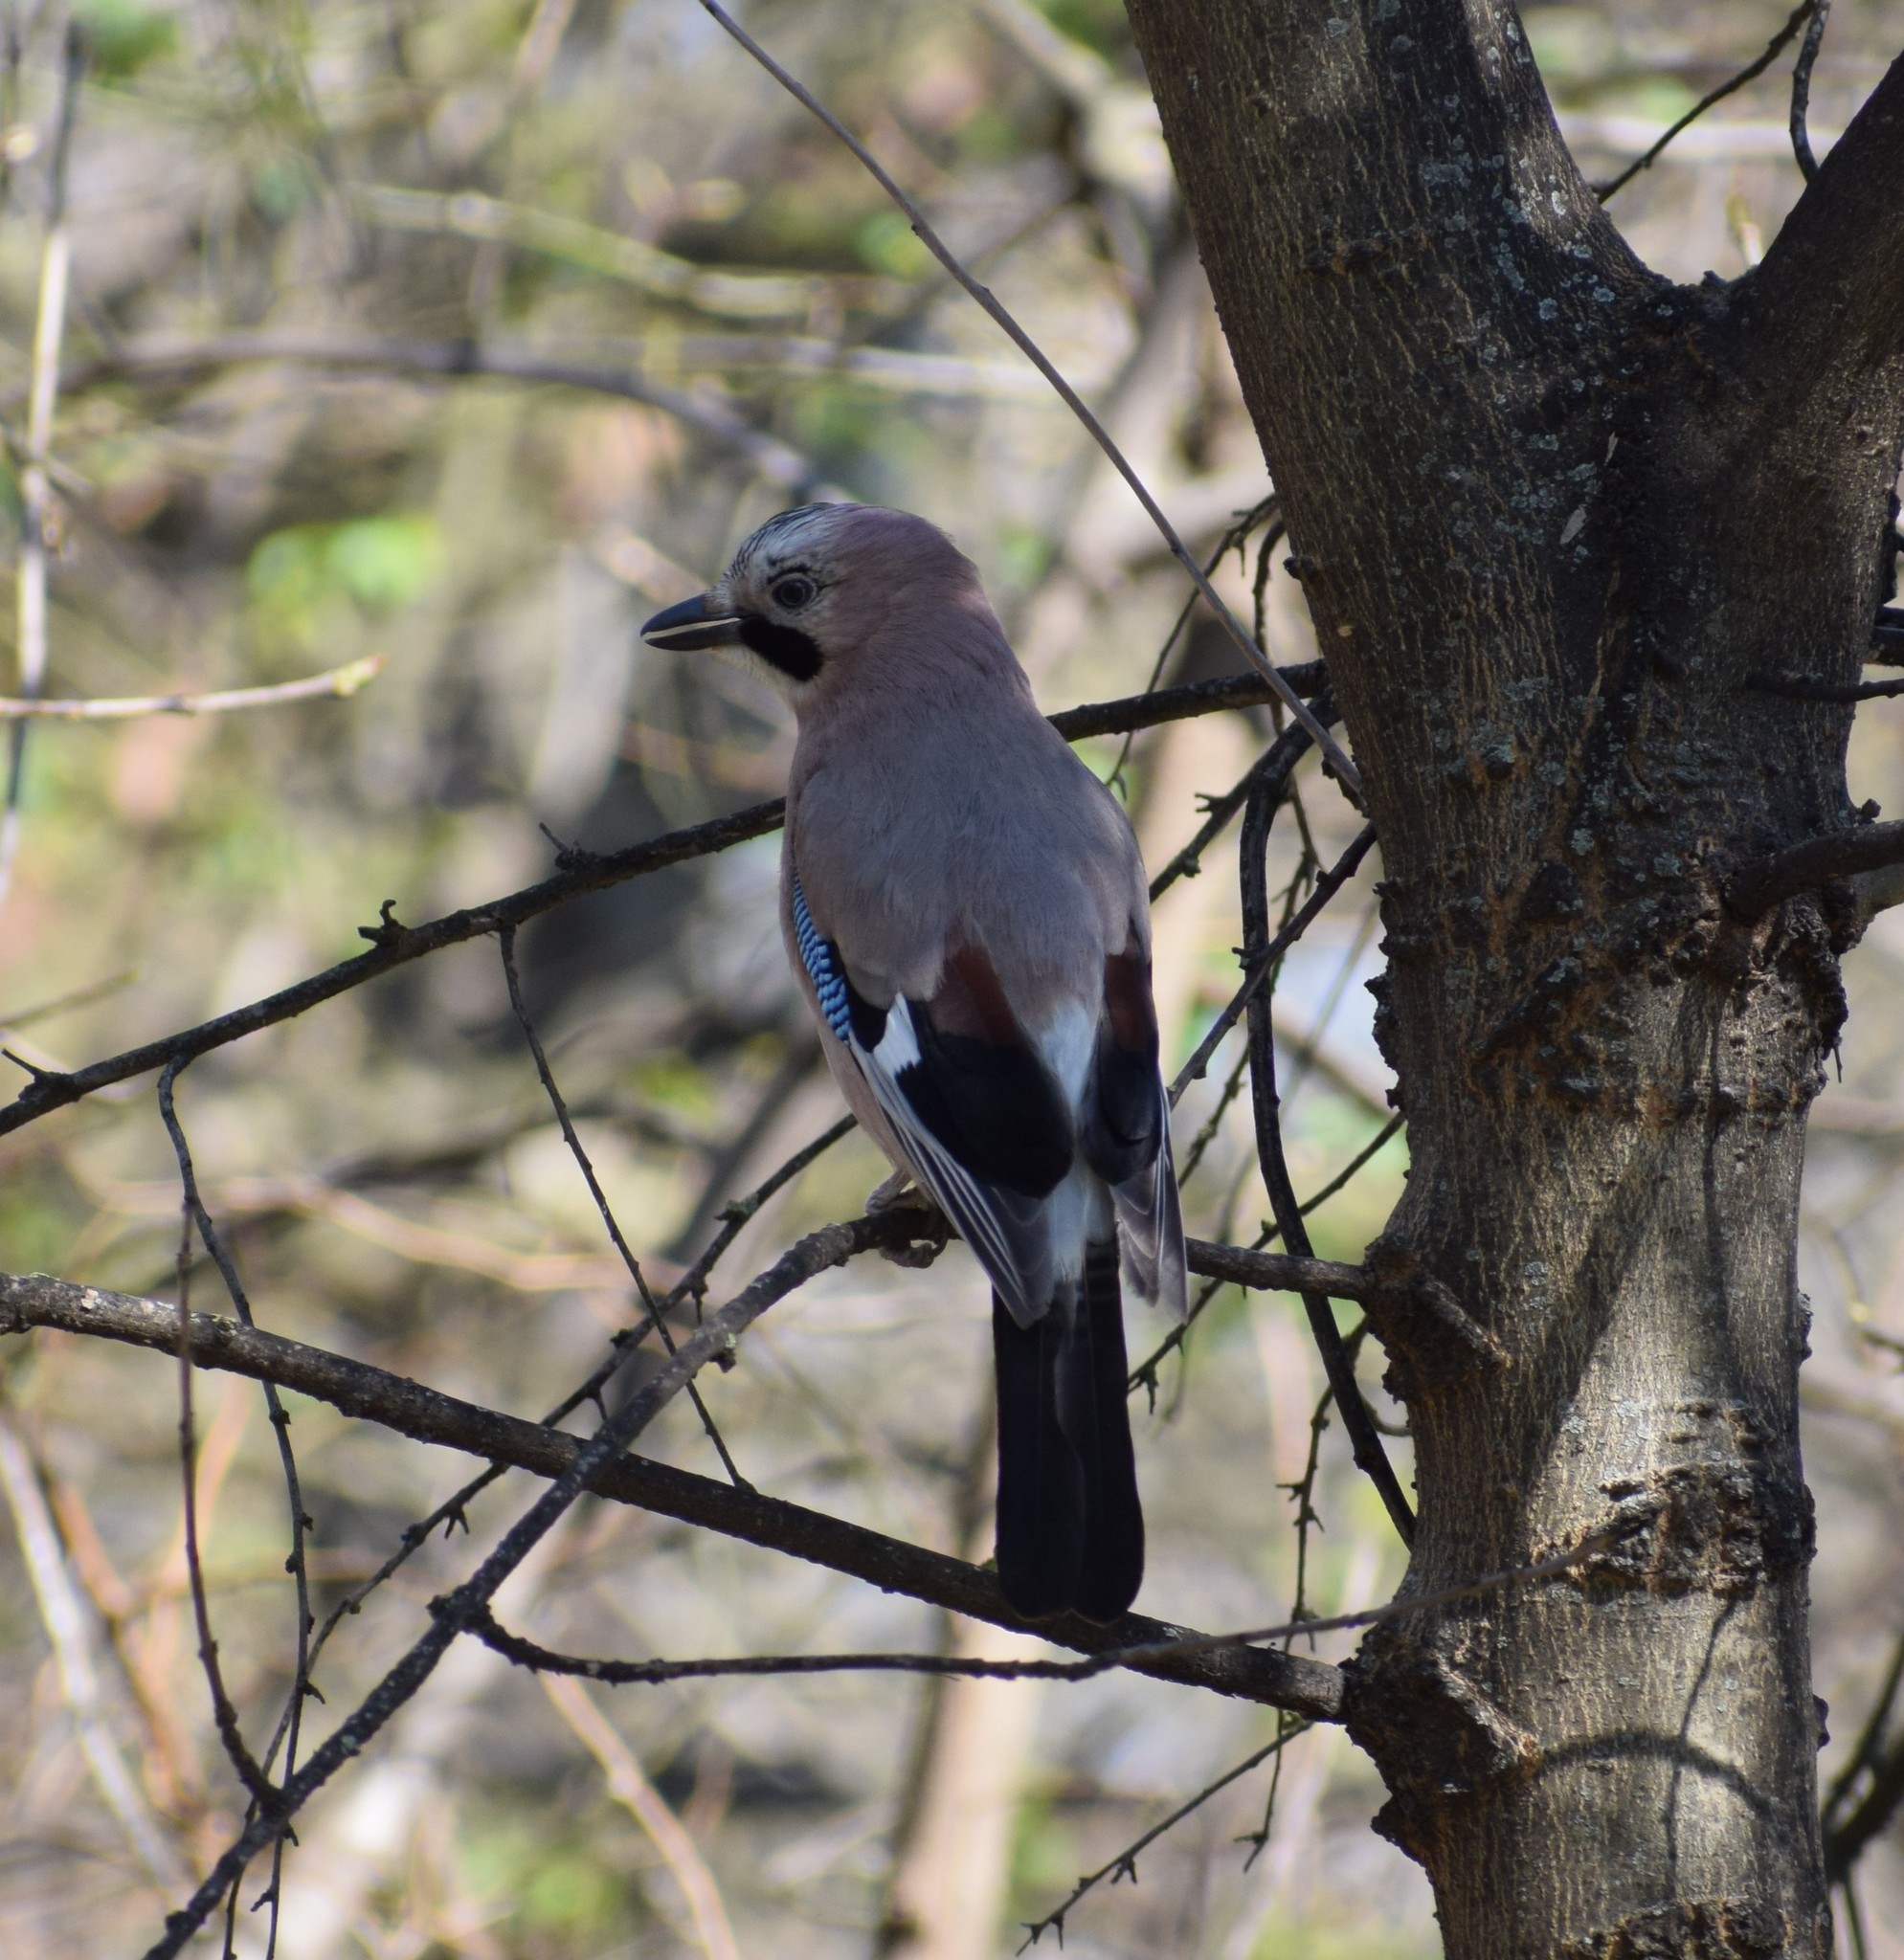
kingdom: Animalia
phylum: Chordata
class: Aves
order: Passeriformes
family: Corvidae
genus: Garrulus
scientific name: Garrulus glandarius
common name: Eurasian jay
